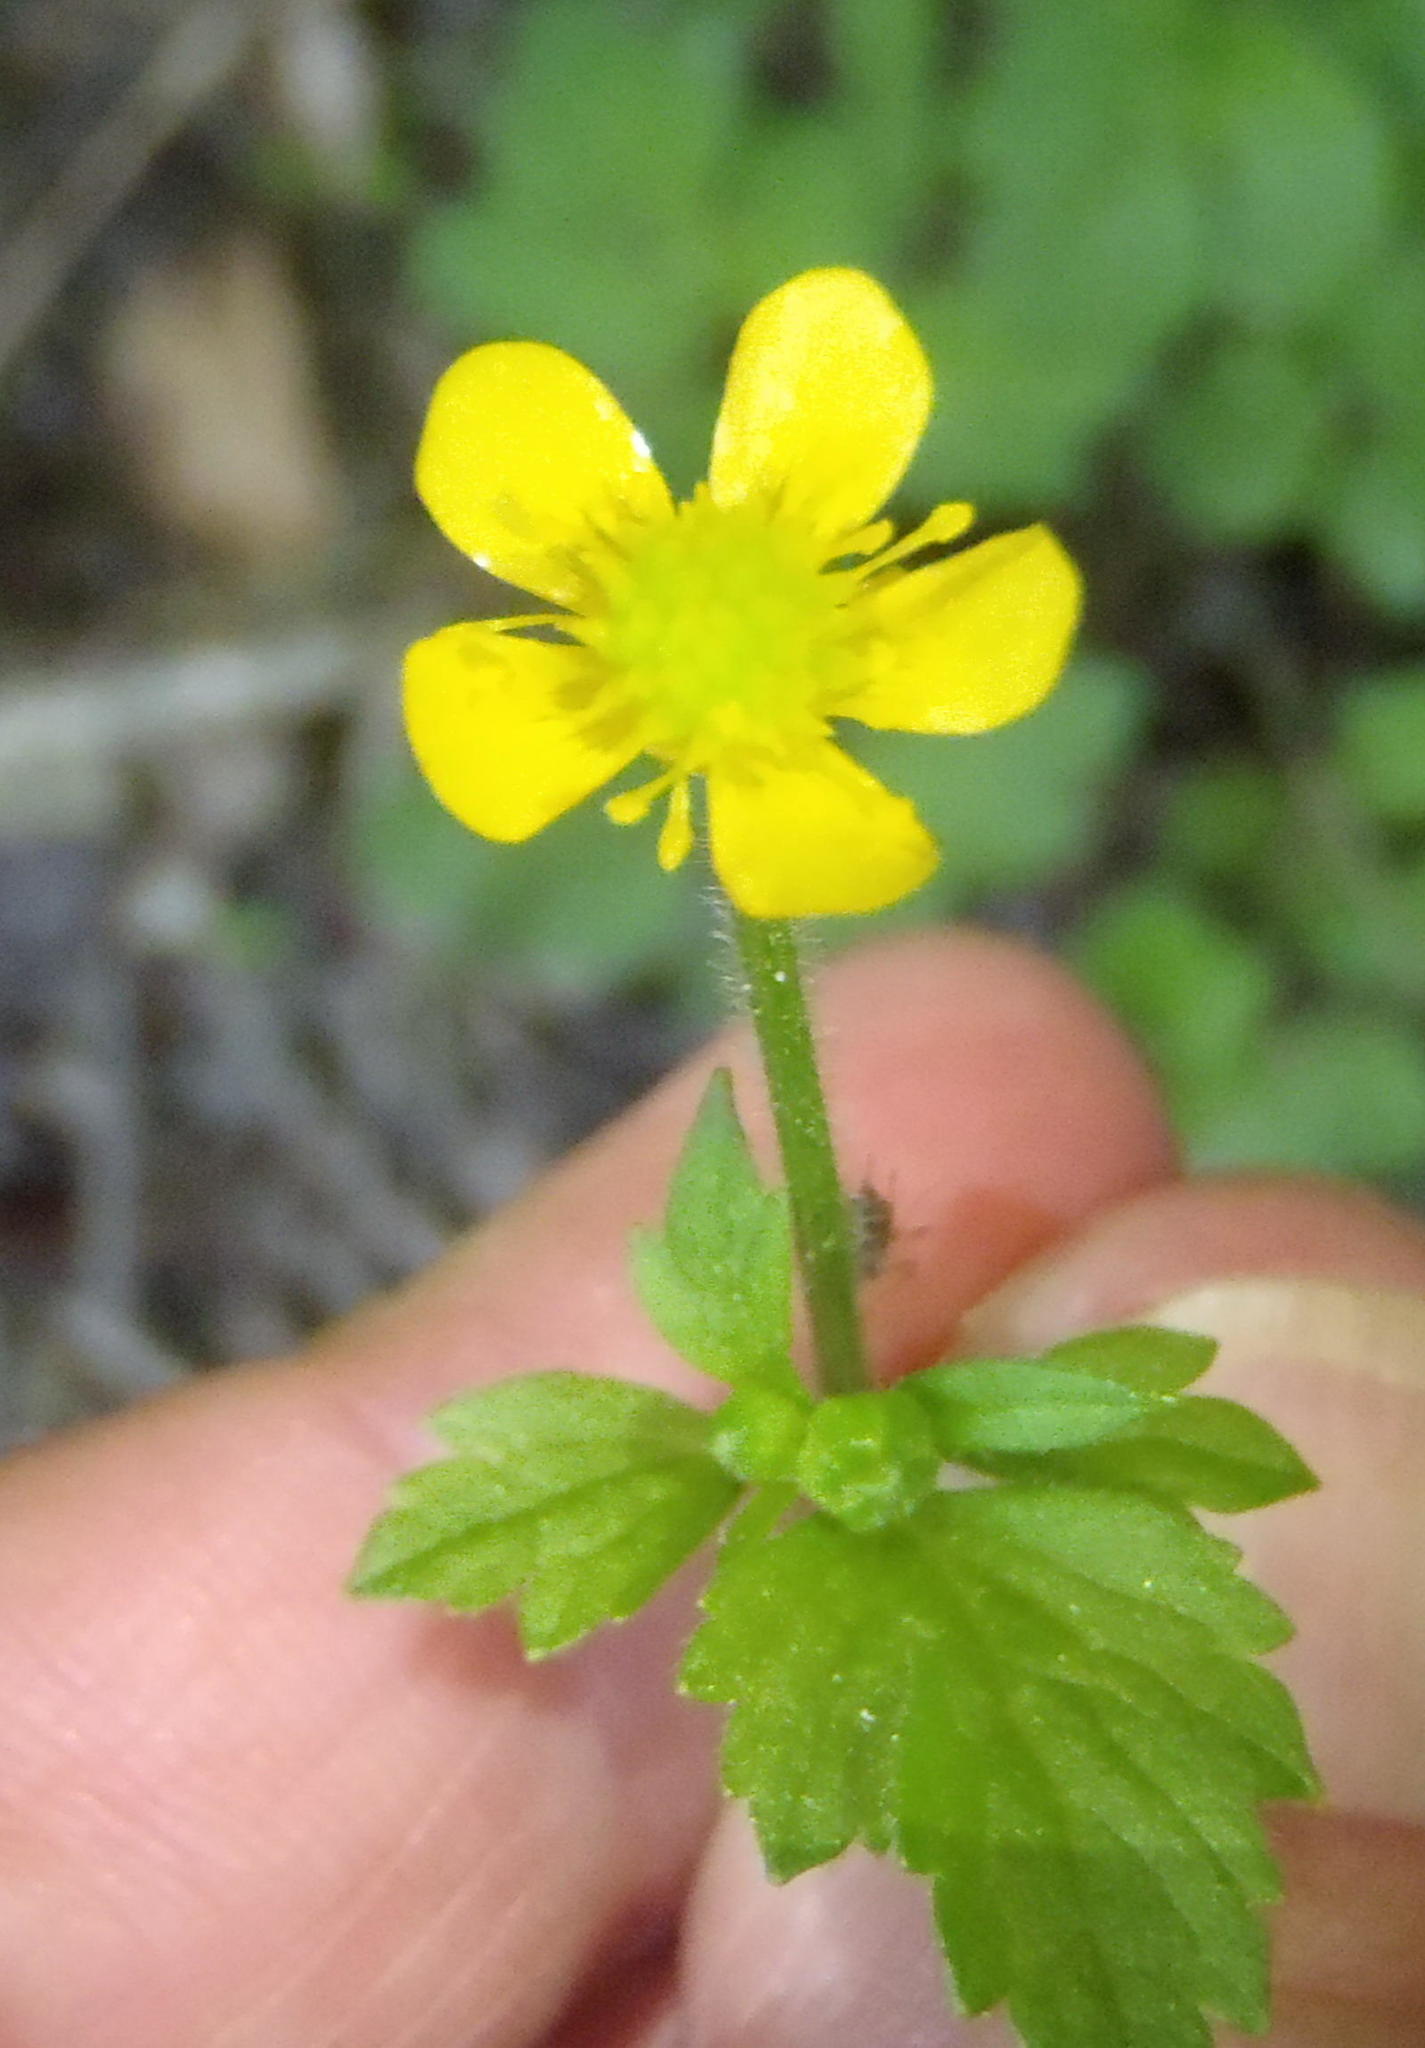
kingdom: Plantae
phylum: Tracheophyta
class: Magnoliopsida
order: Ranunculales
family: Ranunculaceae
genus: Ranunculus
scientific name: Ranunculus multifidus
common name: Wild buttercup
